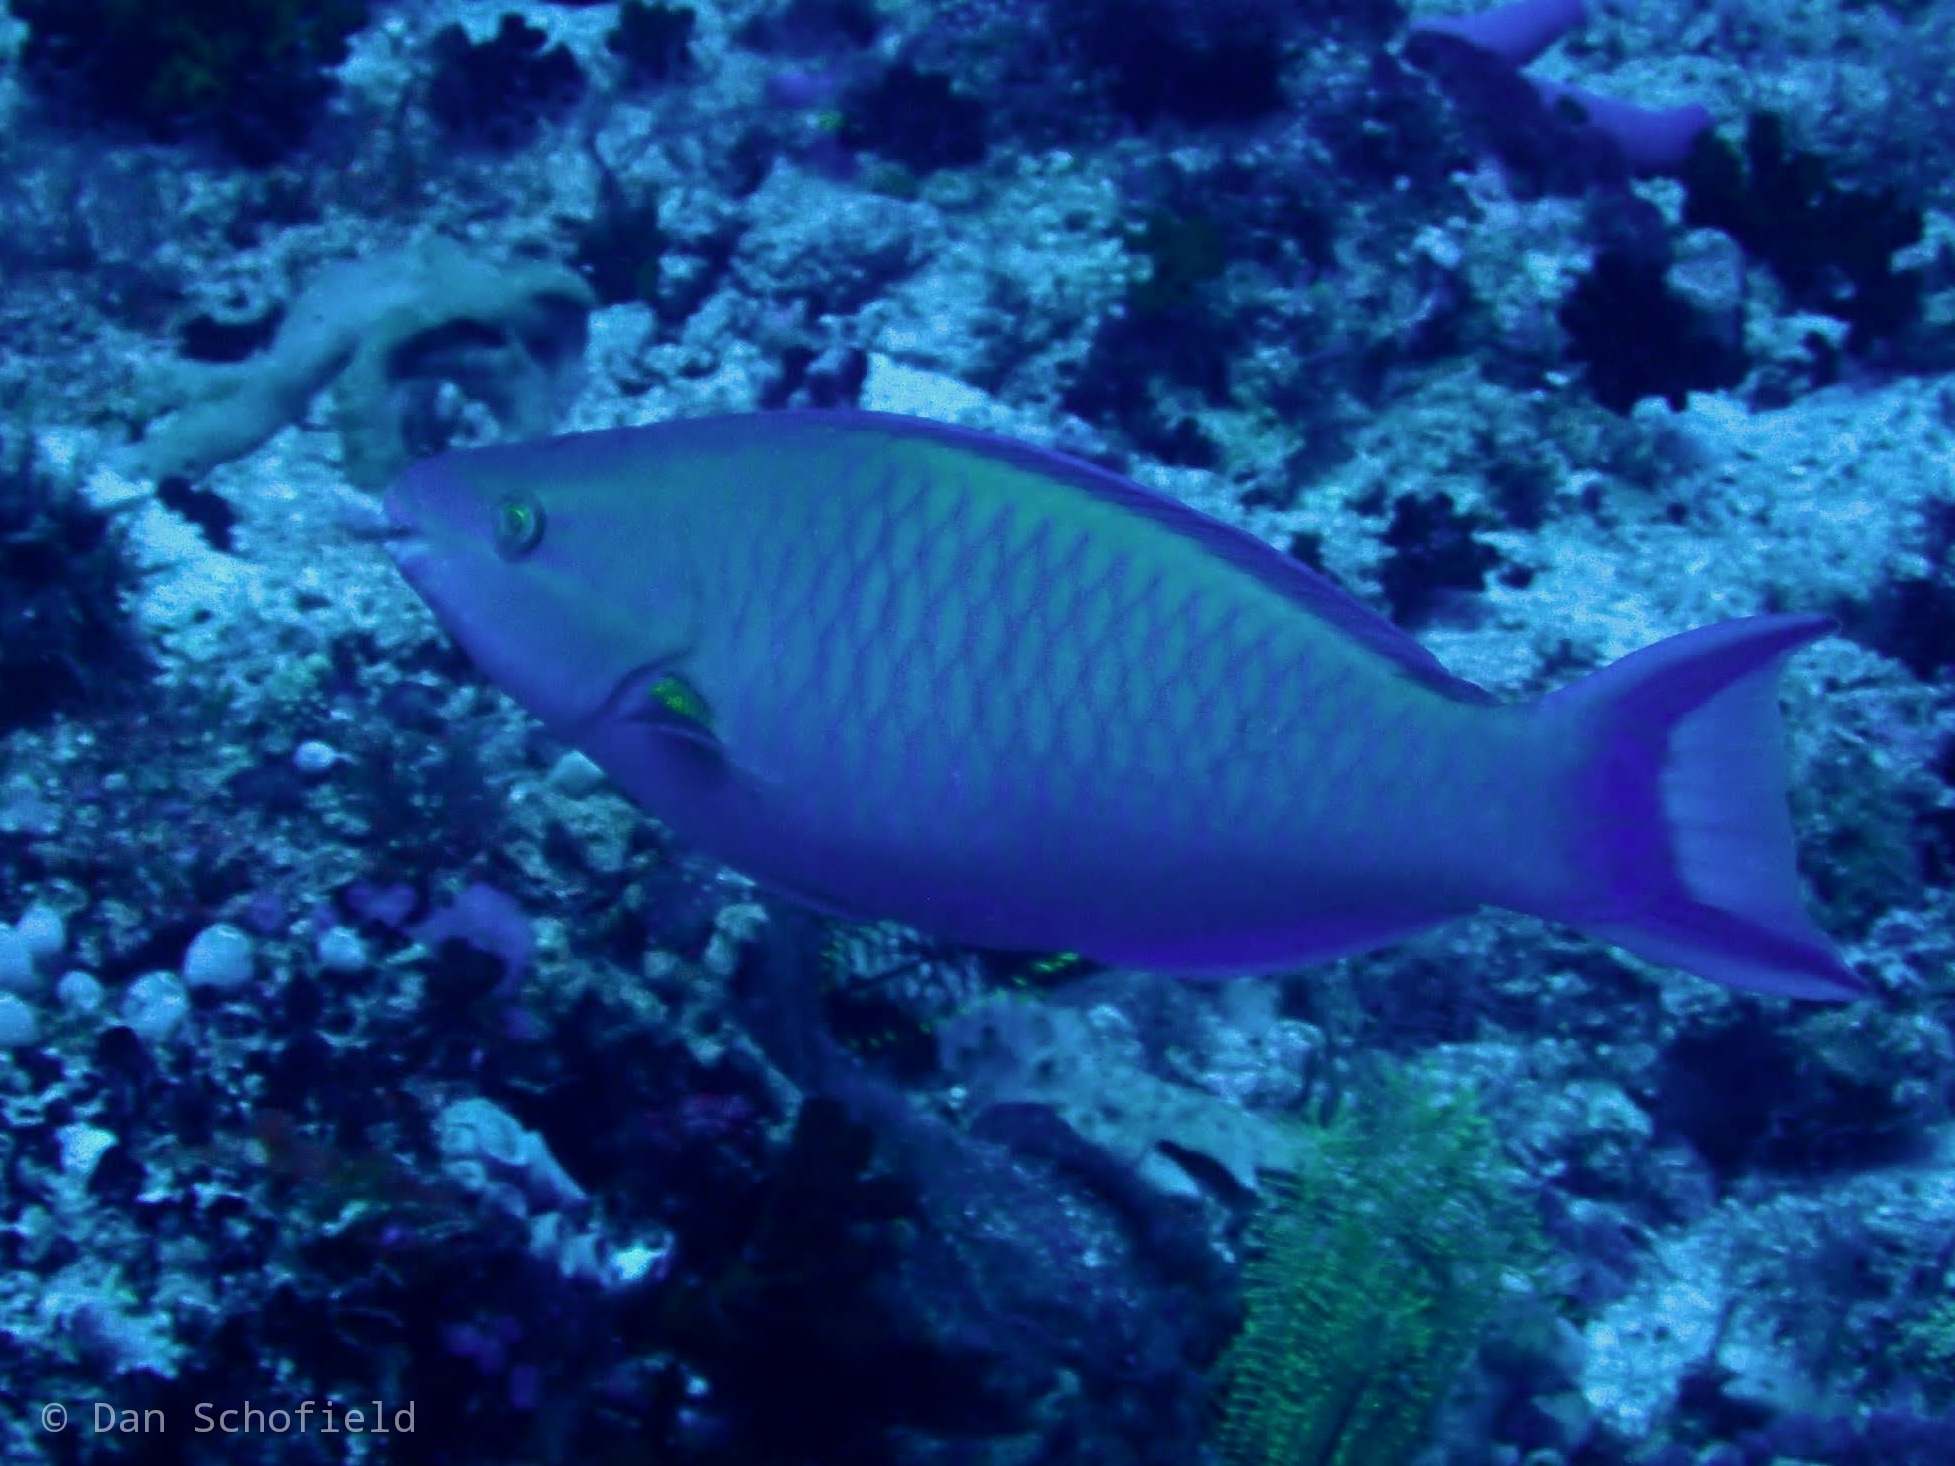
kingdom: Animalia
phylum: Chordata
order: Perciformes
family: Scaridae
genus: Scarus
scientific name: Scarus tricolor
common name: Tricolour parrotfish
